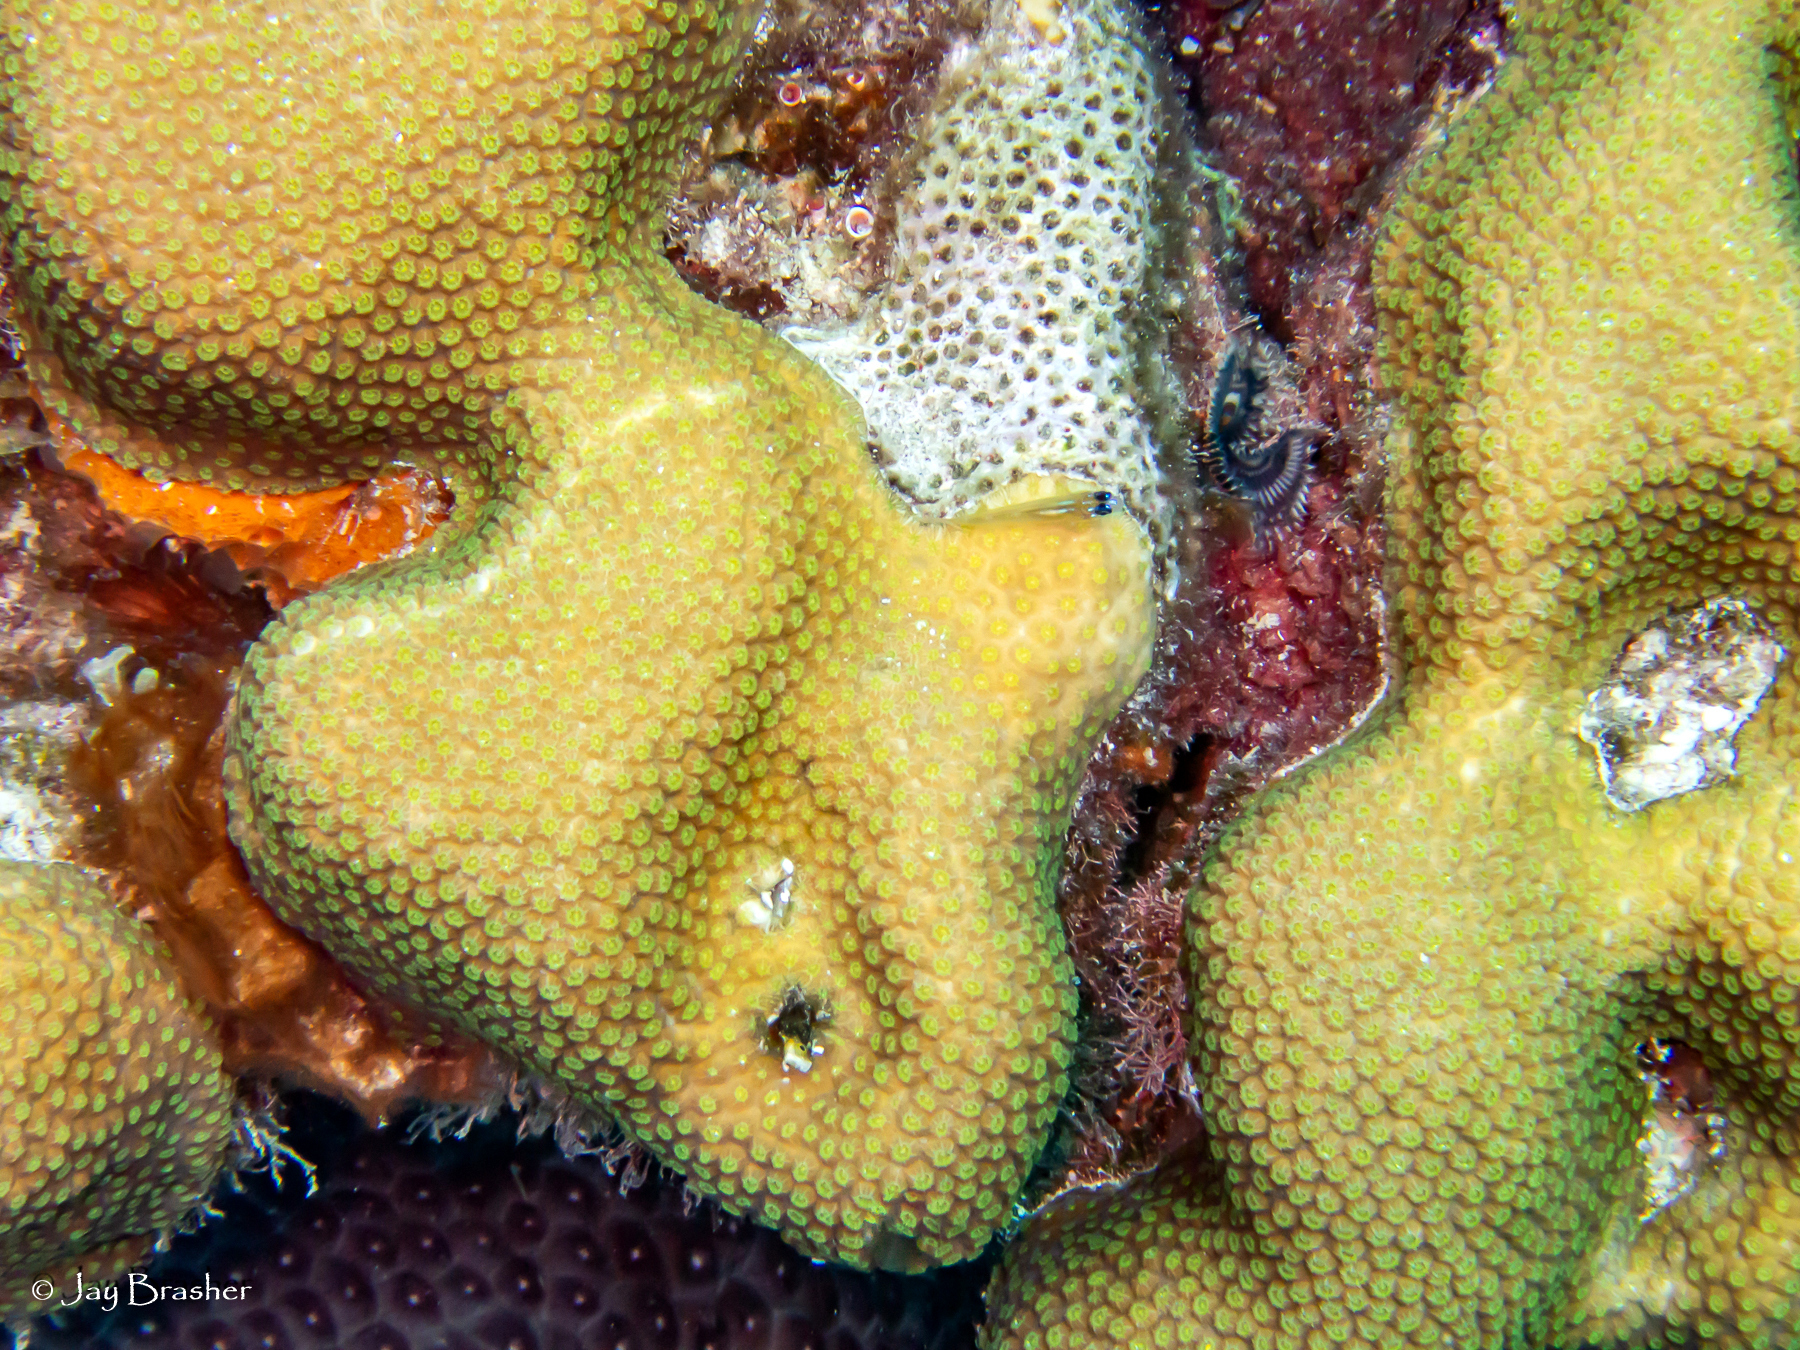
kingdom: Animalia
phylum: Chordata
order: Perciformes
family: Gobiidae
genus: Coryphopterus
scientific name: Coryphopterus lipernes
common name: Peppermint goby
